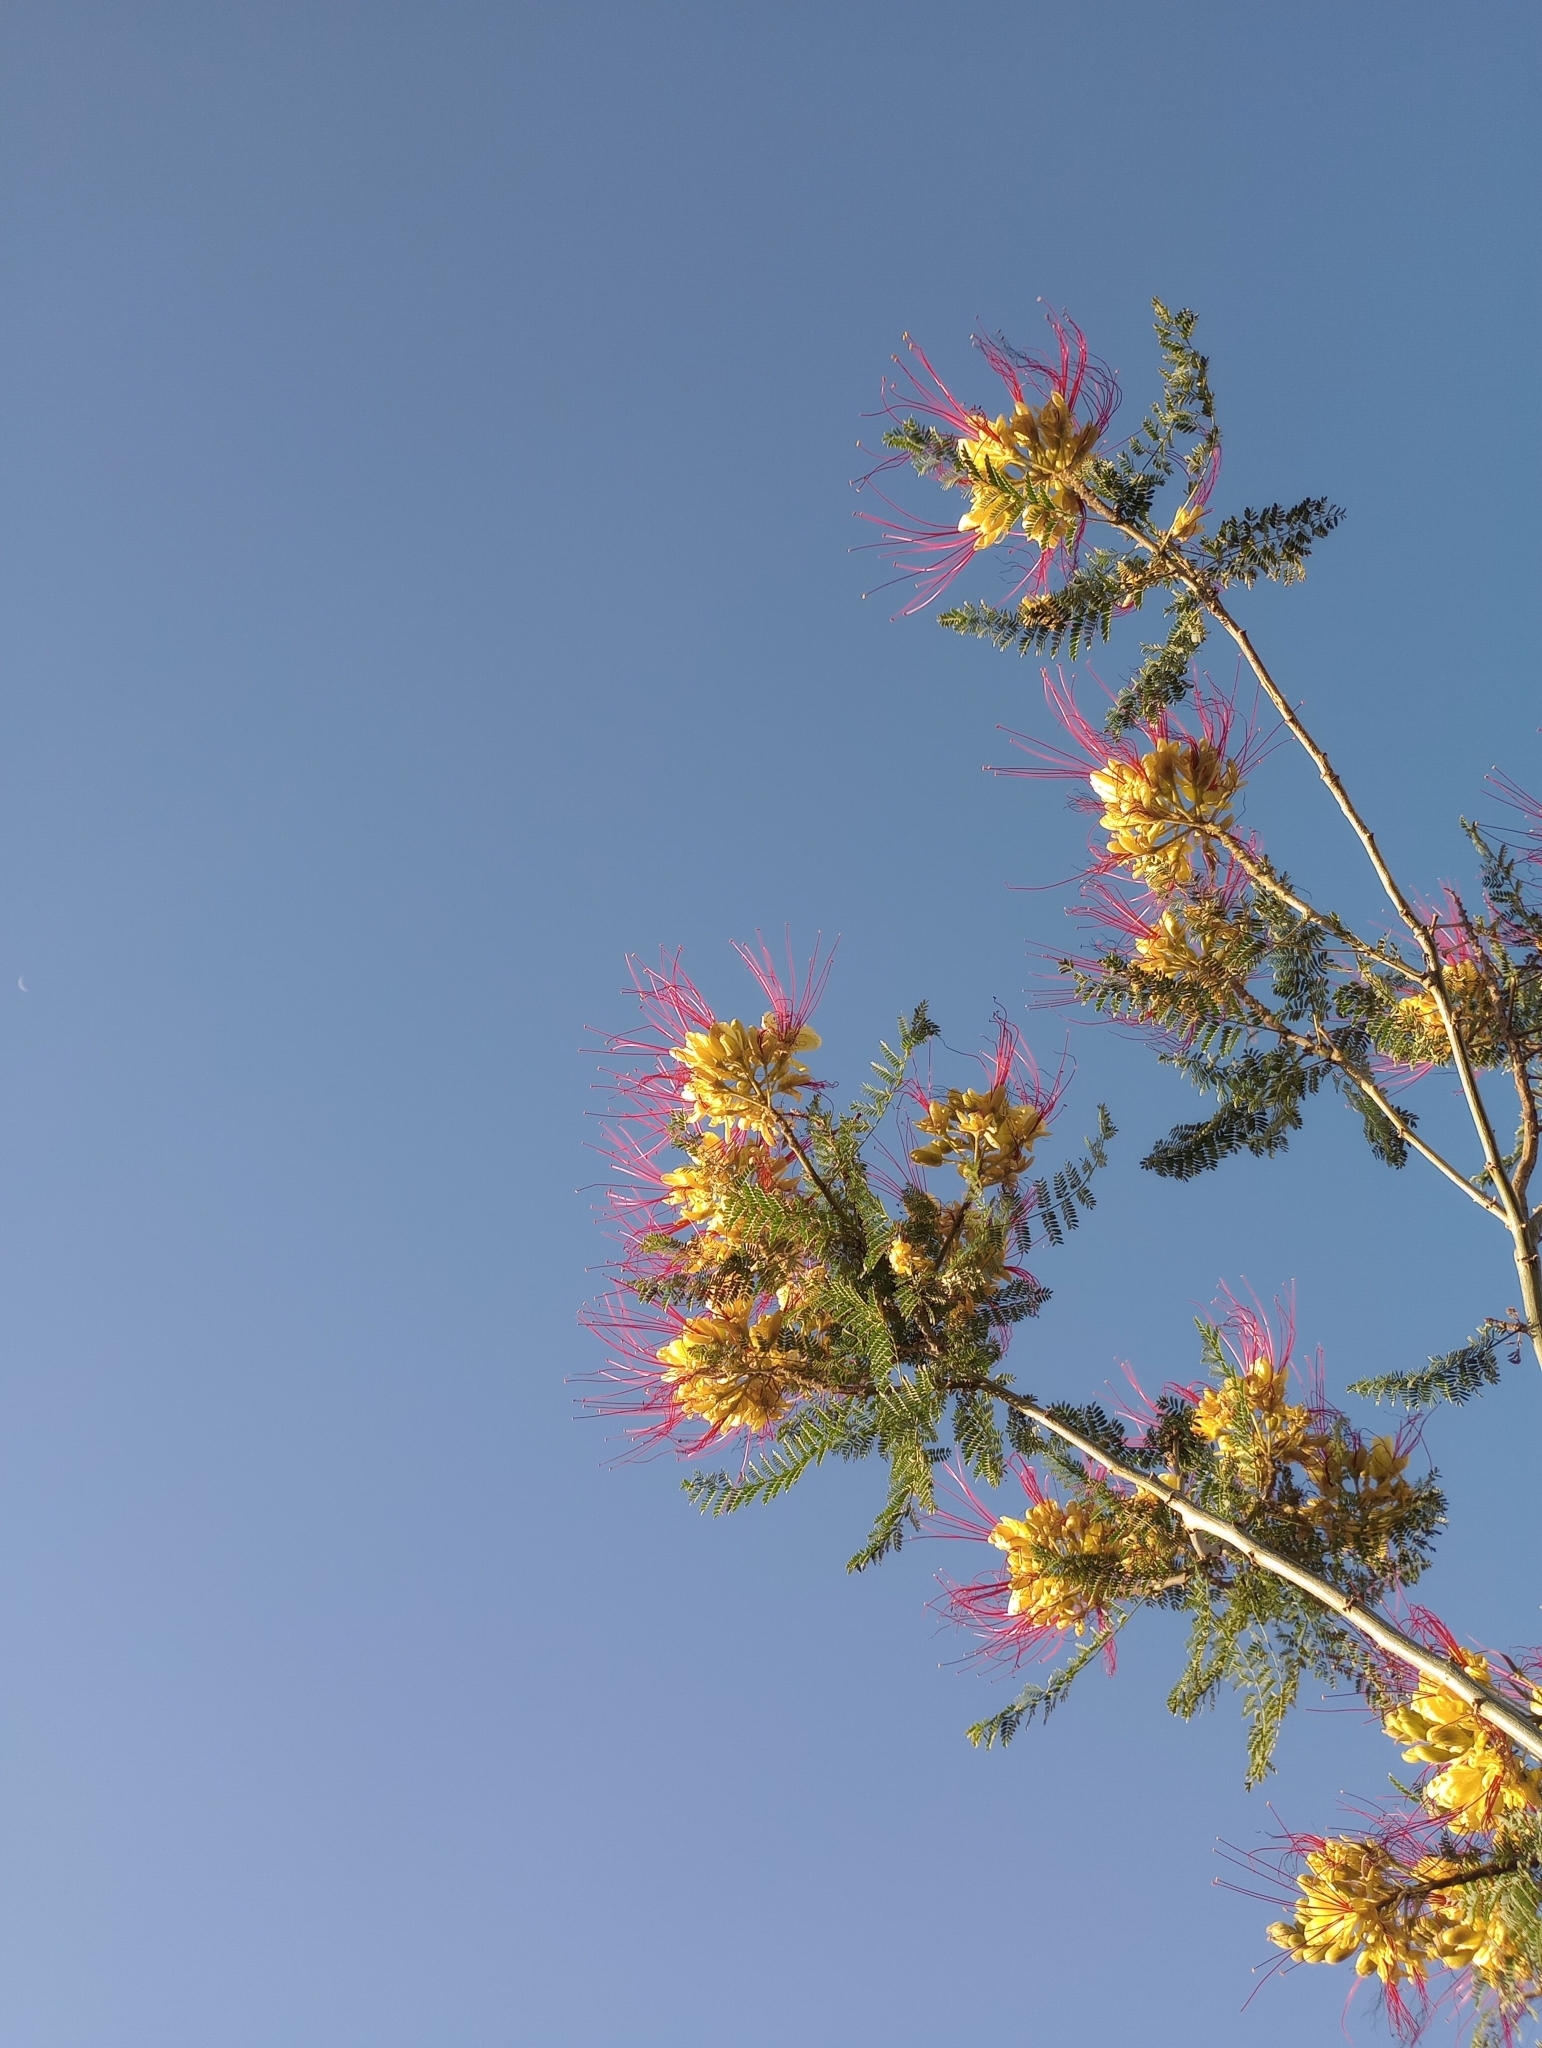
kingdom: Plantae
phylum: Tracheophyta
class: Magnoliopsida
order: Fabales
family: Fabaceae
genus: Erythrostemon
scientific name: Erythrostemon gilliesii
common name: Bird-of-paradise shrub
